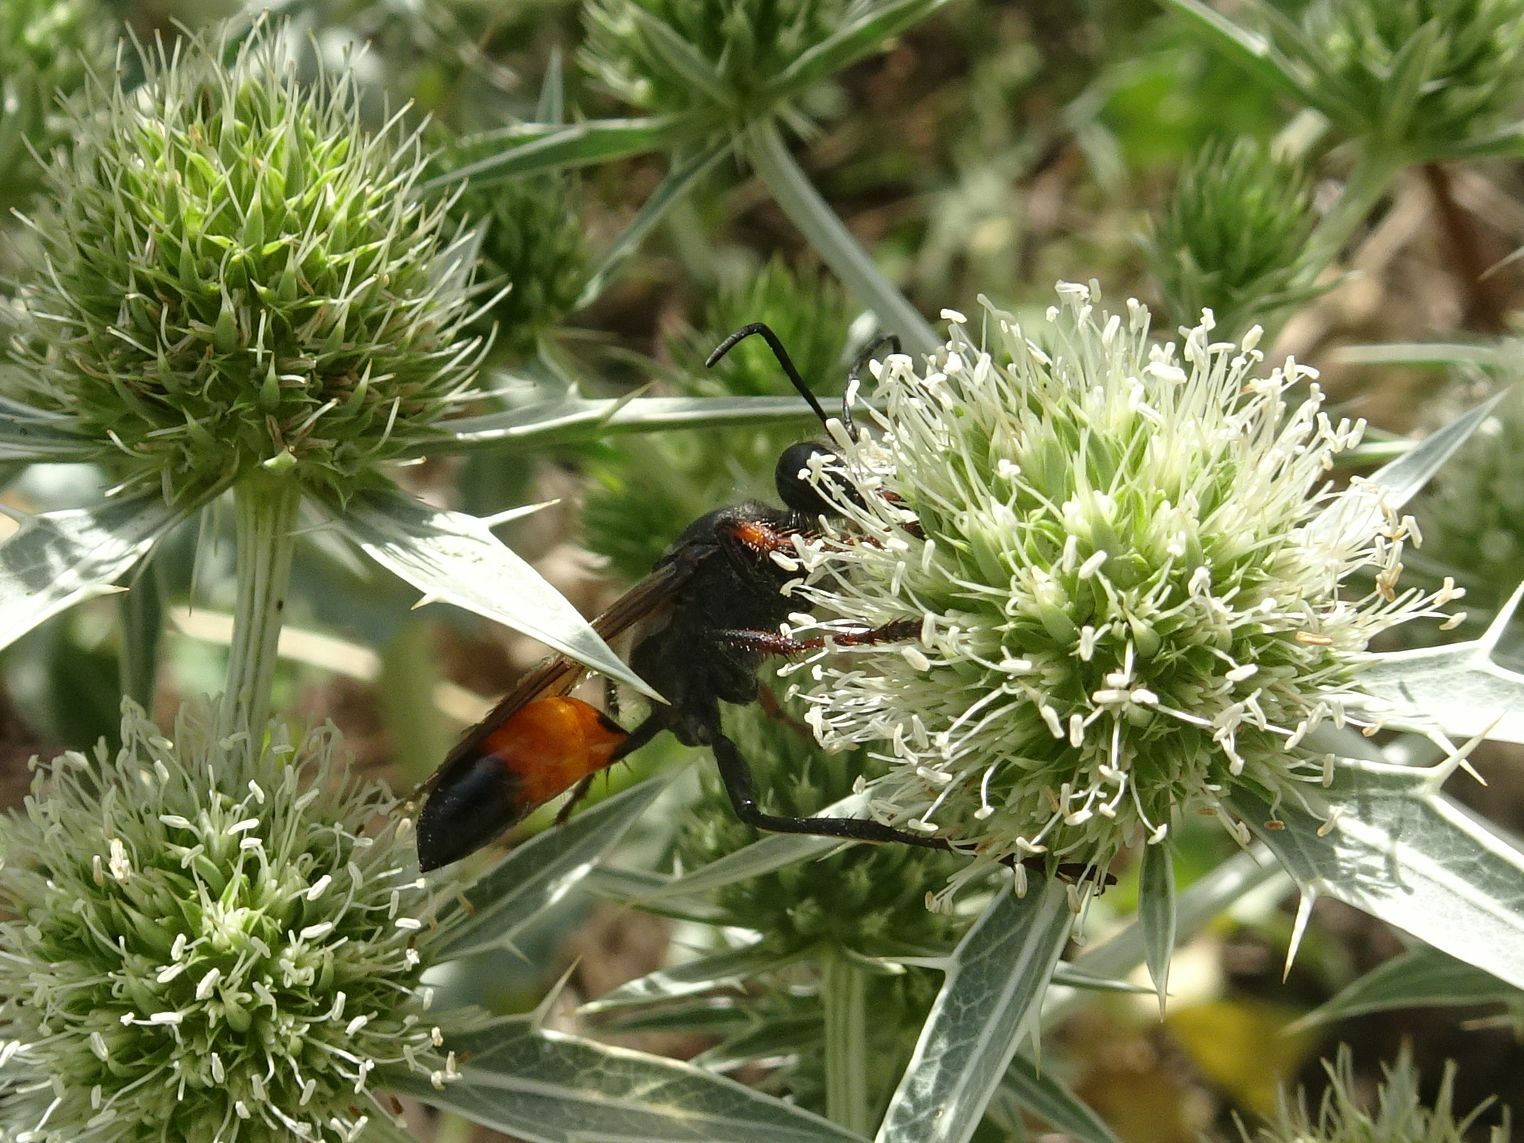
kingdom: Animalia
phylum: Arthropoda
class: Insecta
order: Hymenoptera
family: Sphecidae
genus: Sphex
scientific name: Sphex funerarius
